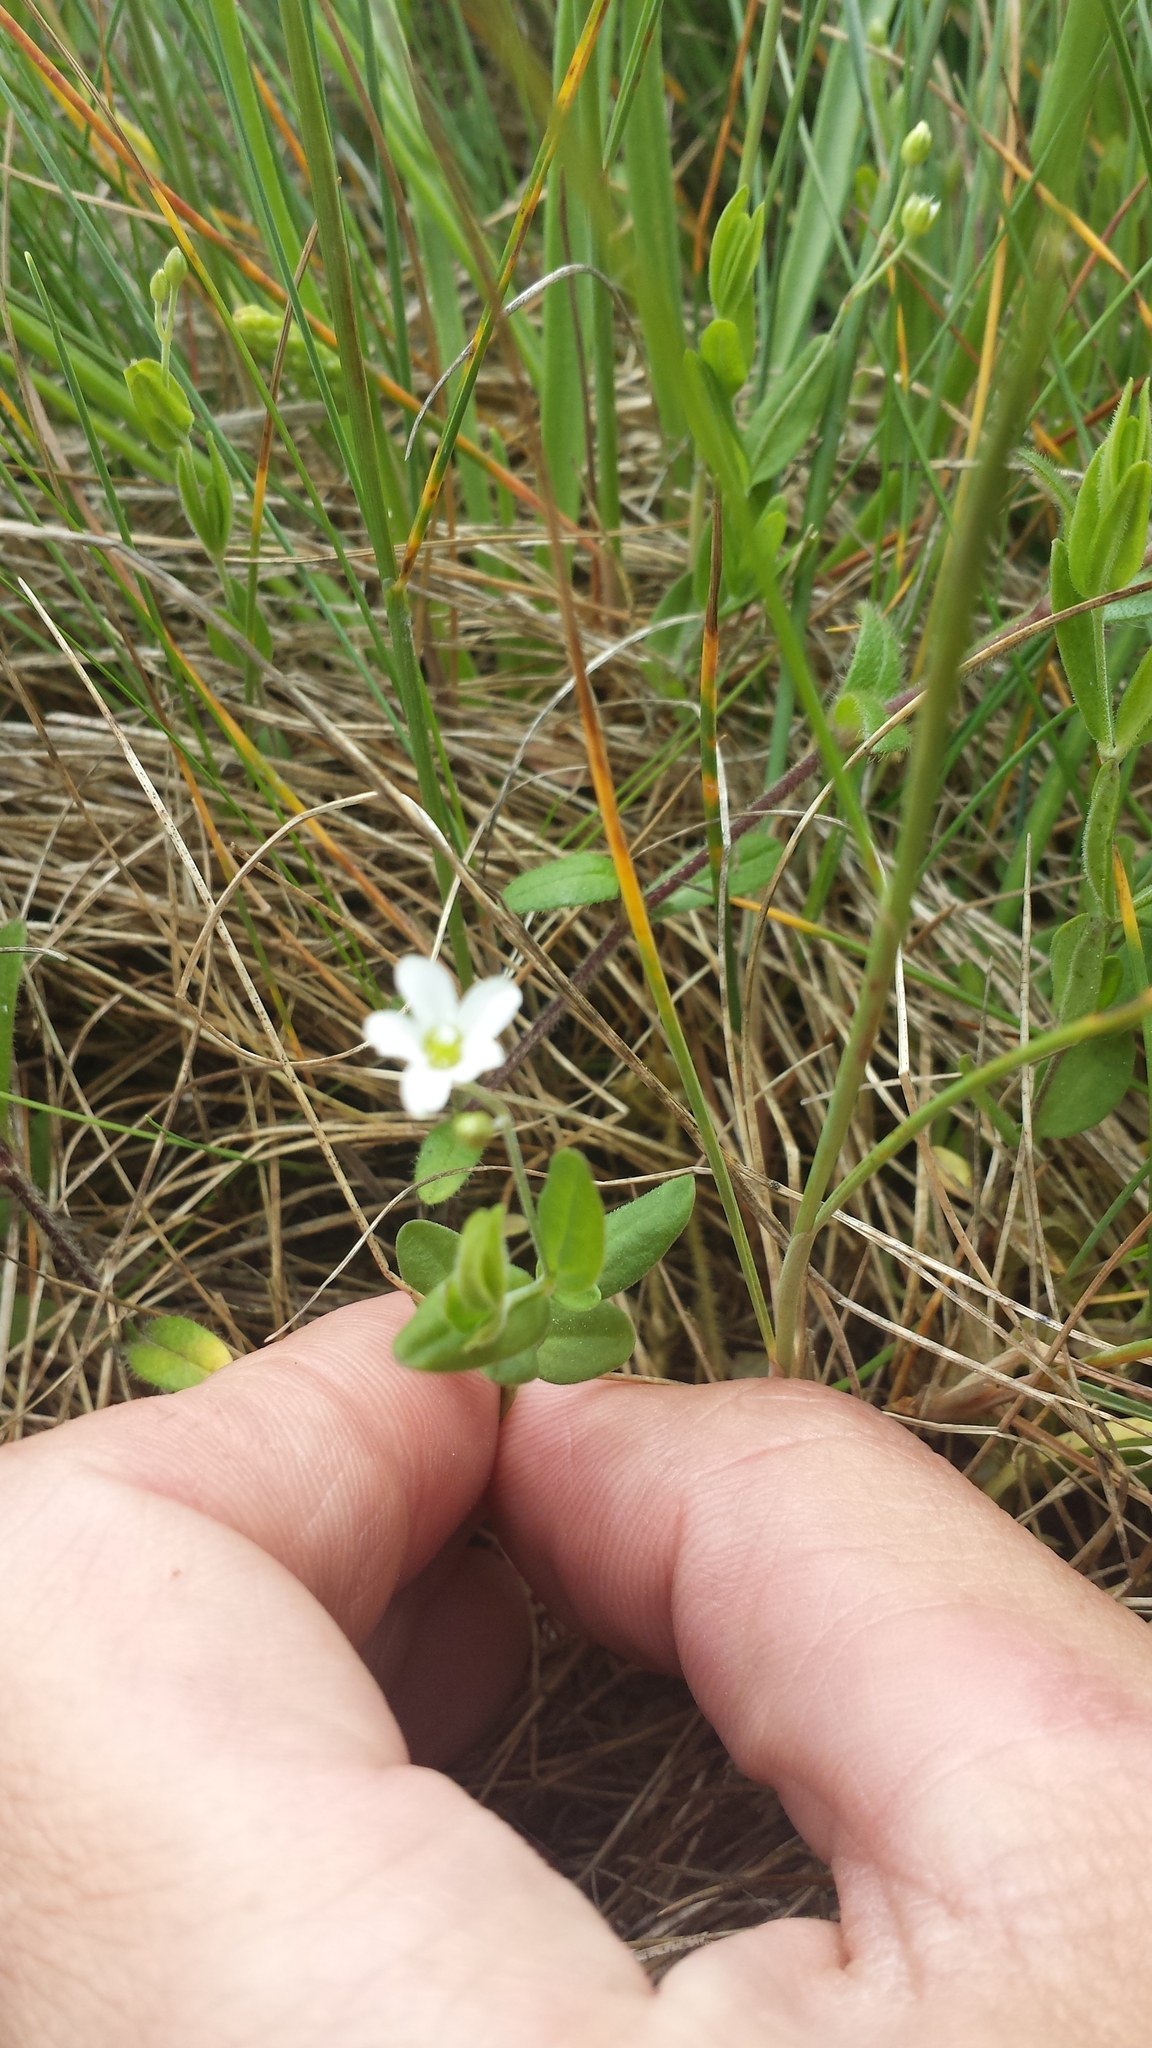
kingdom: Plantae
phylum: Tracheophyta
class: Magnoliopsida
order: Caryophyllales
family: Caryophyllaceae
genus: Moehringia
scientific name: Moehringia lateriflora
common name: Blunt-leaved sandwort
